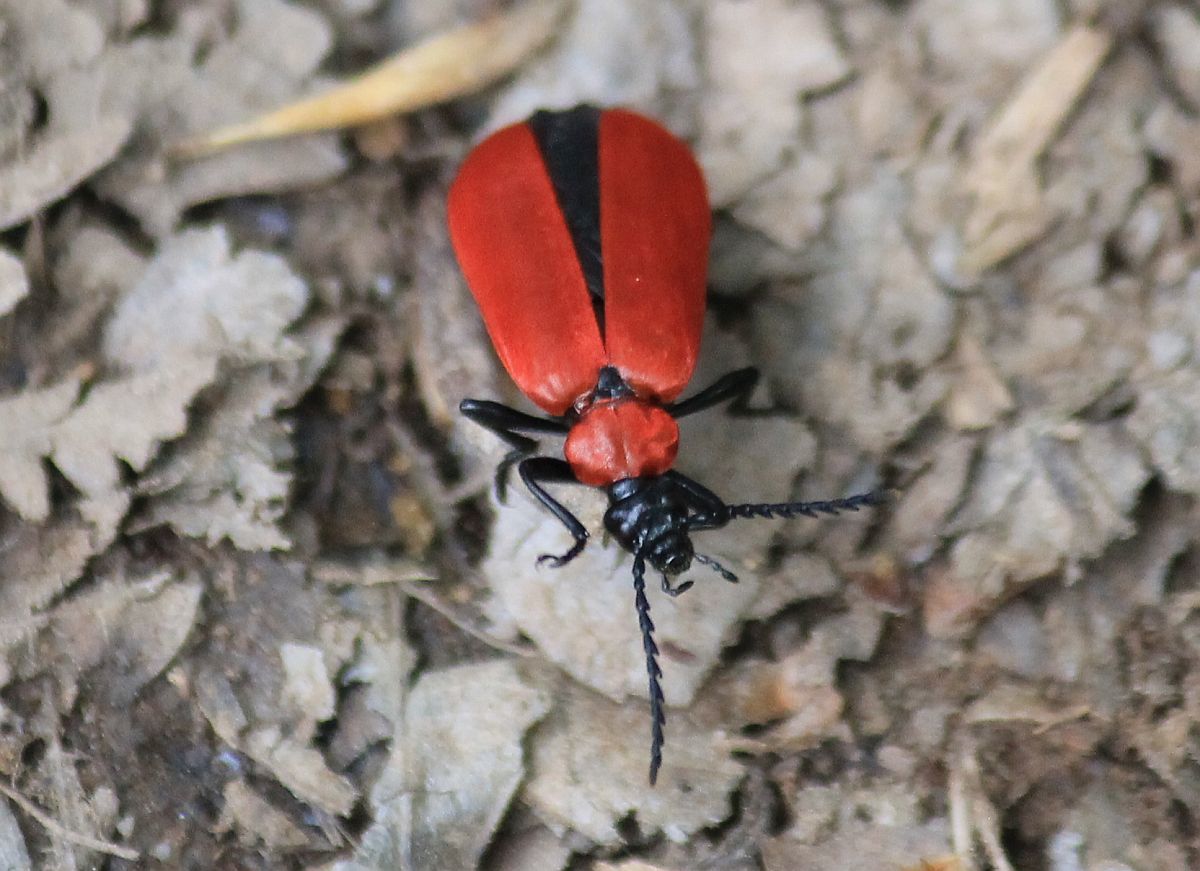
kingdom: Animalia
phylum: Arthropoda
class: Insecta
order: Coleoptera
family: Pyrochroidae
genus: Pyrochroa
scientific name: Pyrochroa coccinea
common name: Black-headed cardinal beetle
